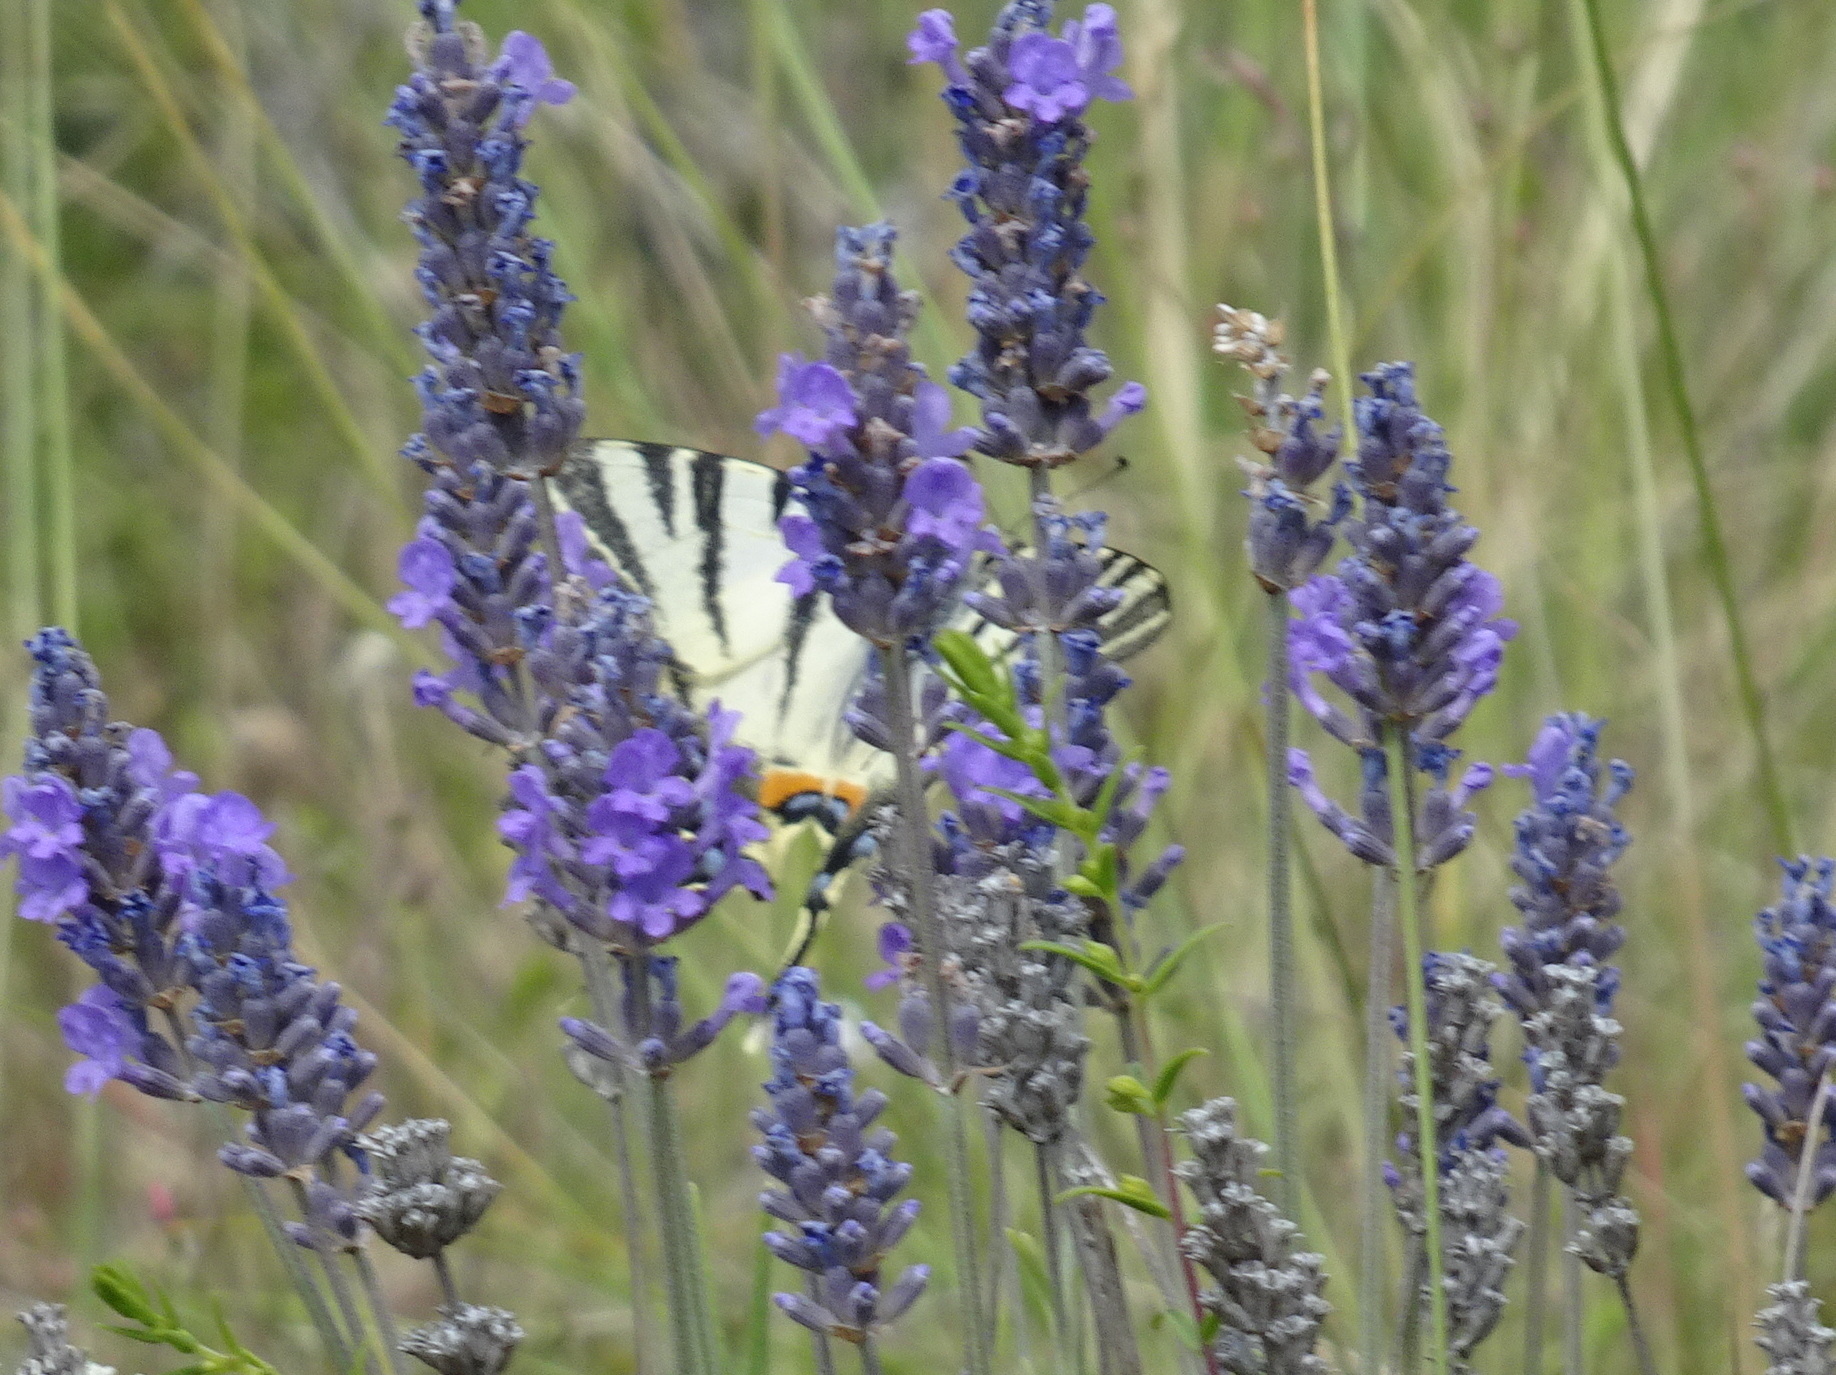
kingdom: Animalia
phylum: Arthropoda
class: Insecta
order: Lepidoptera
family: Papilionidae
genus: Iphiclides
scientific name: Iphiclides podalirius
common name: Scarce swallowtail
